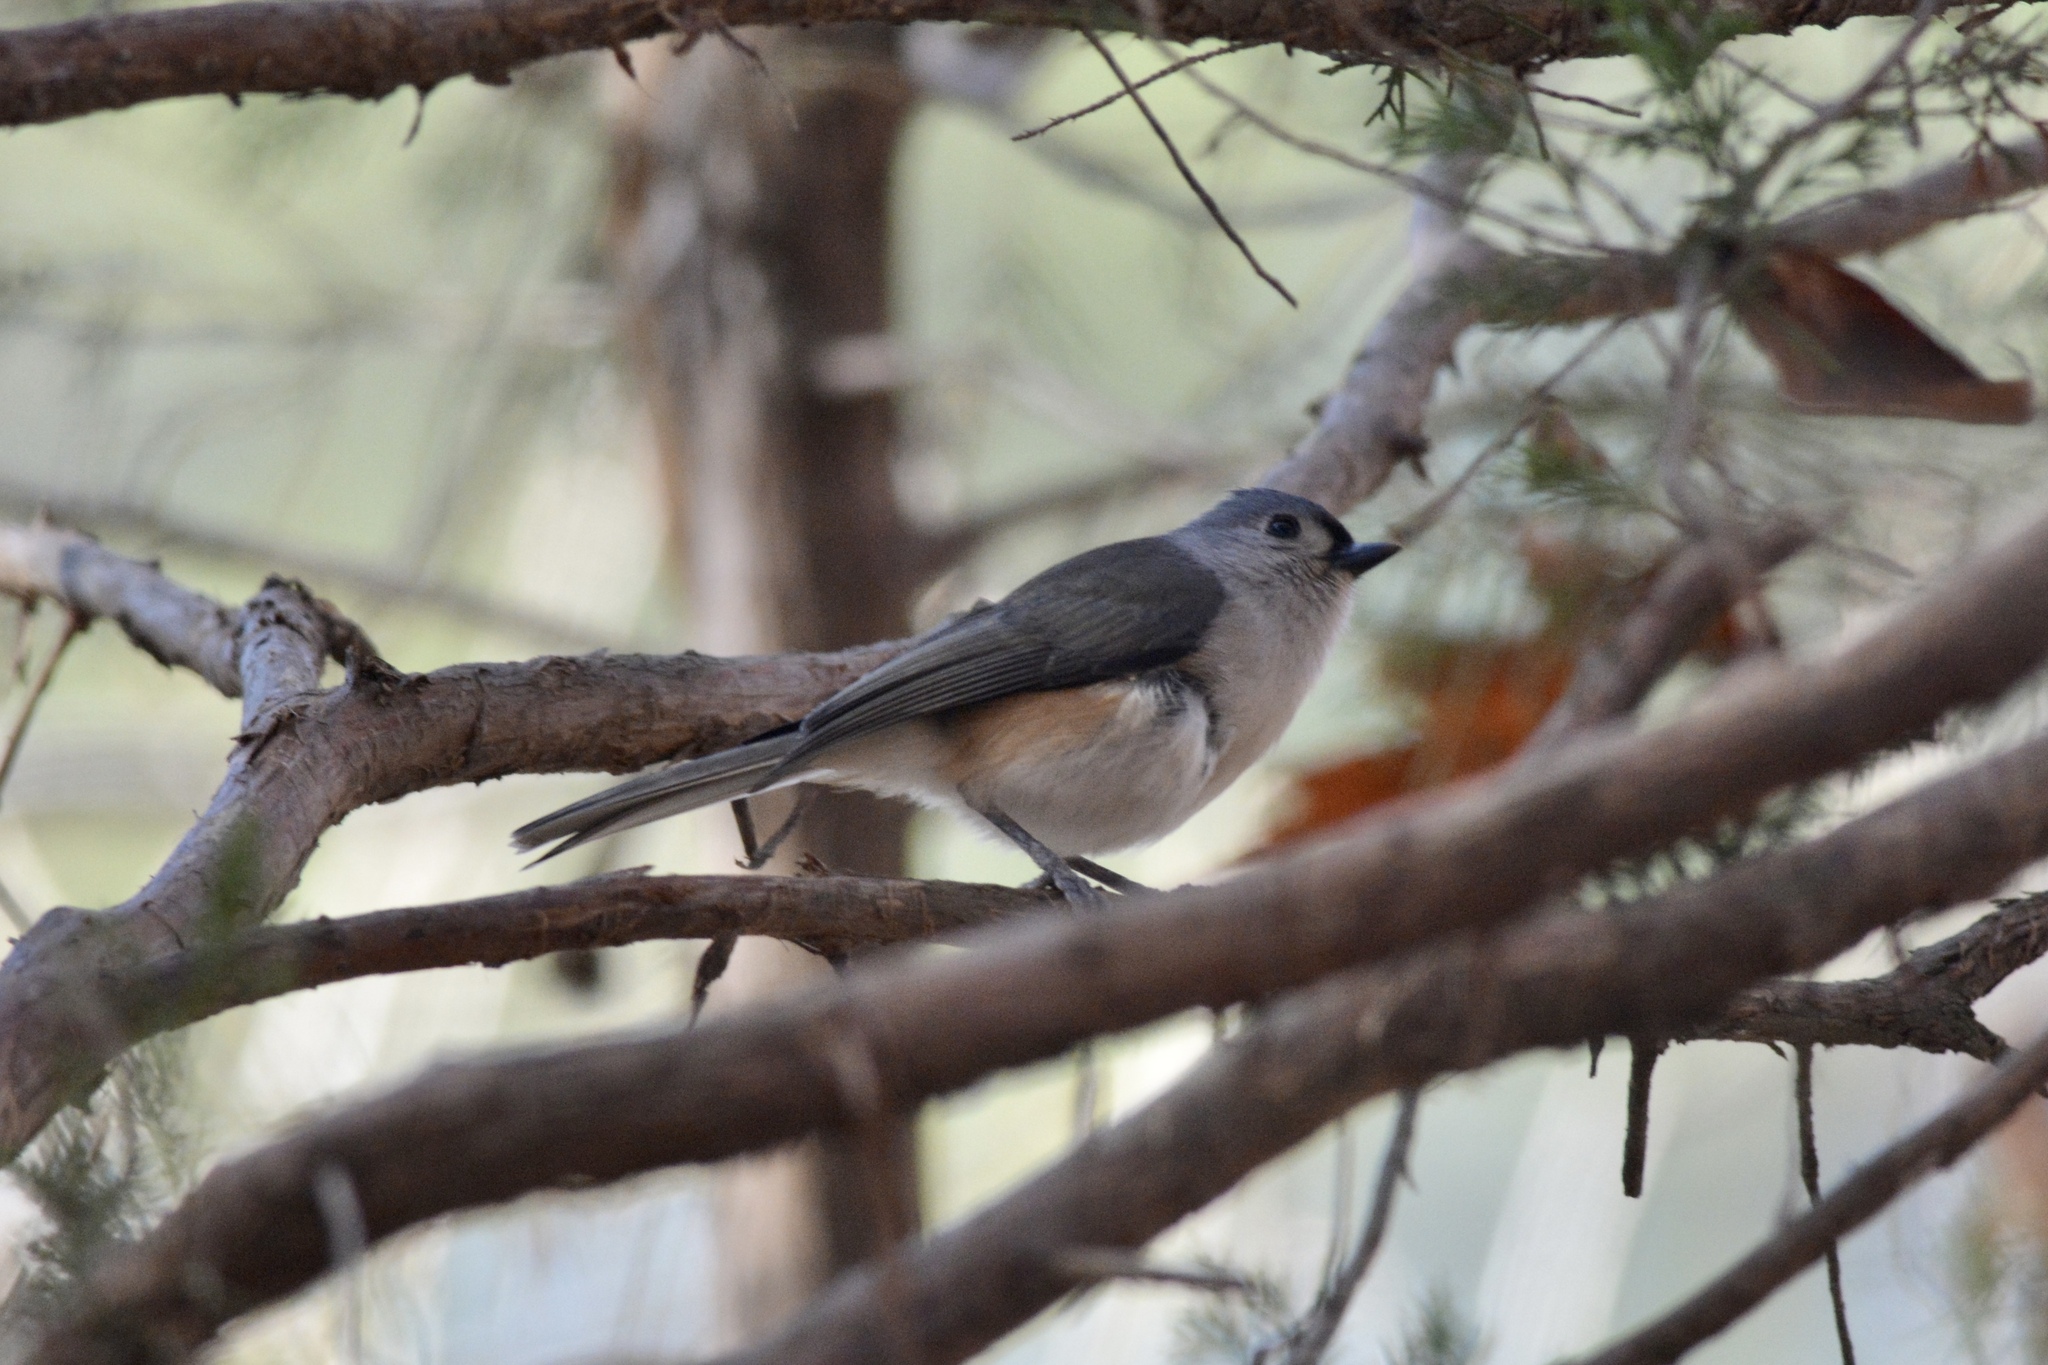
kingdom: Animalia
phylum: Chordata
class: Aves
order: Passeriformes
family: Paridae
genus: Baeolophus
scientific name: Baeolophus bicolor
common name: Tufted titmouse
